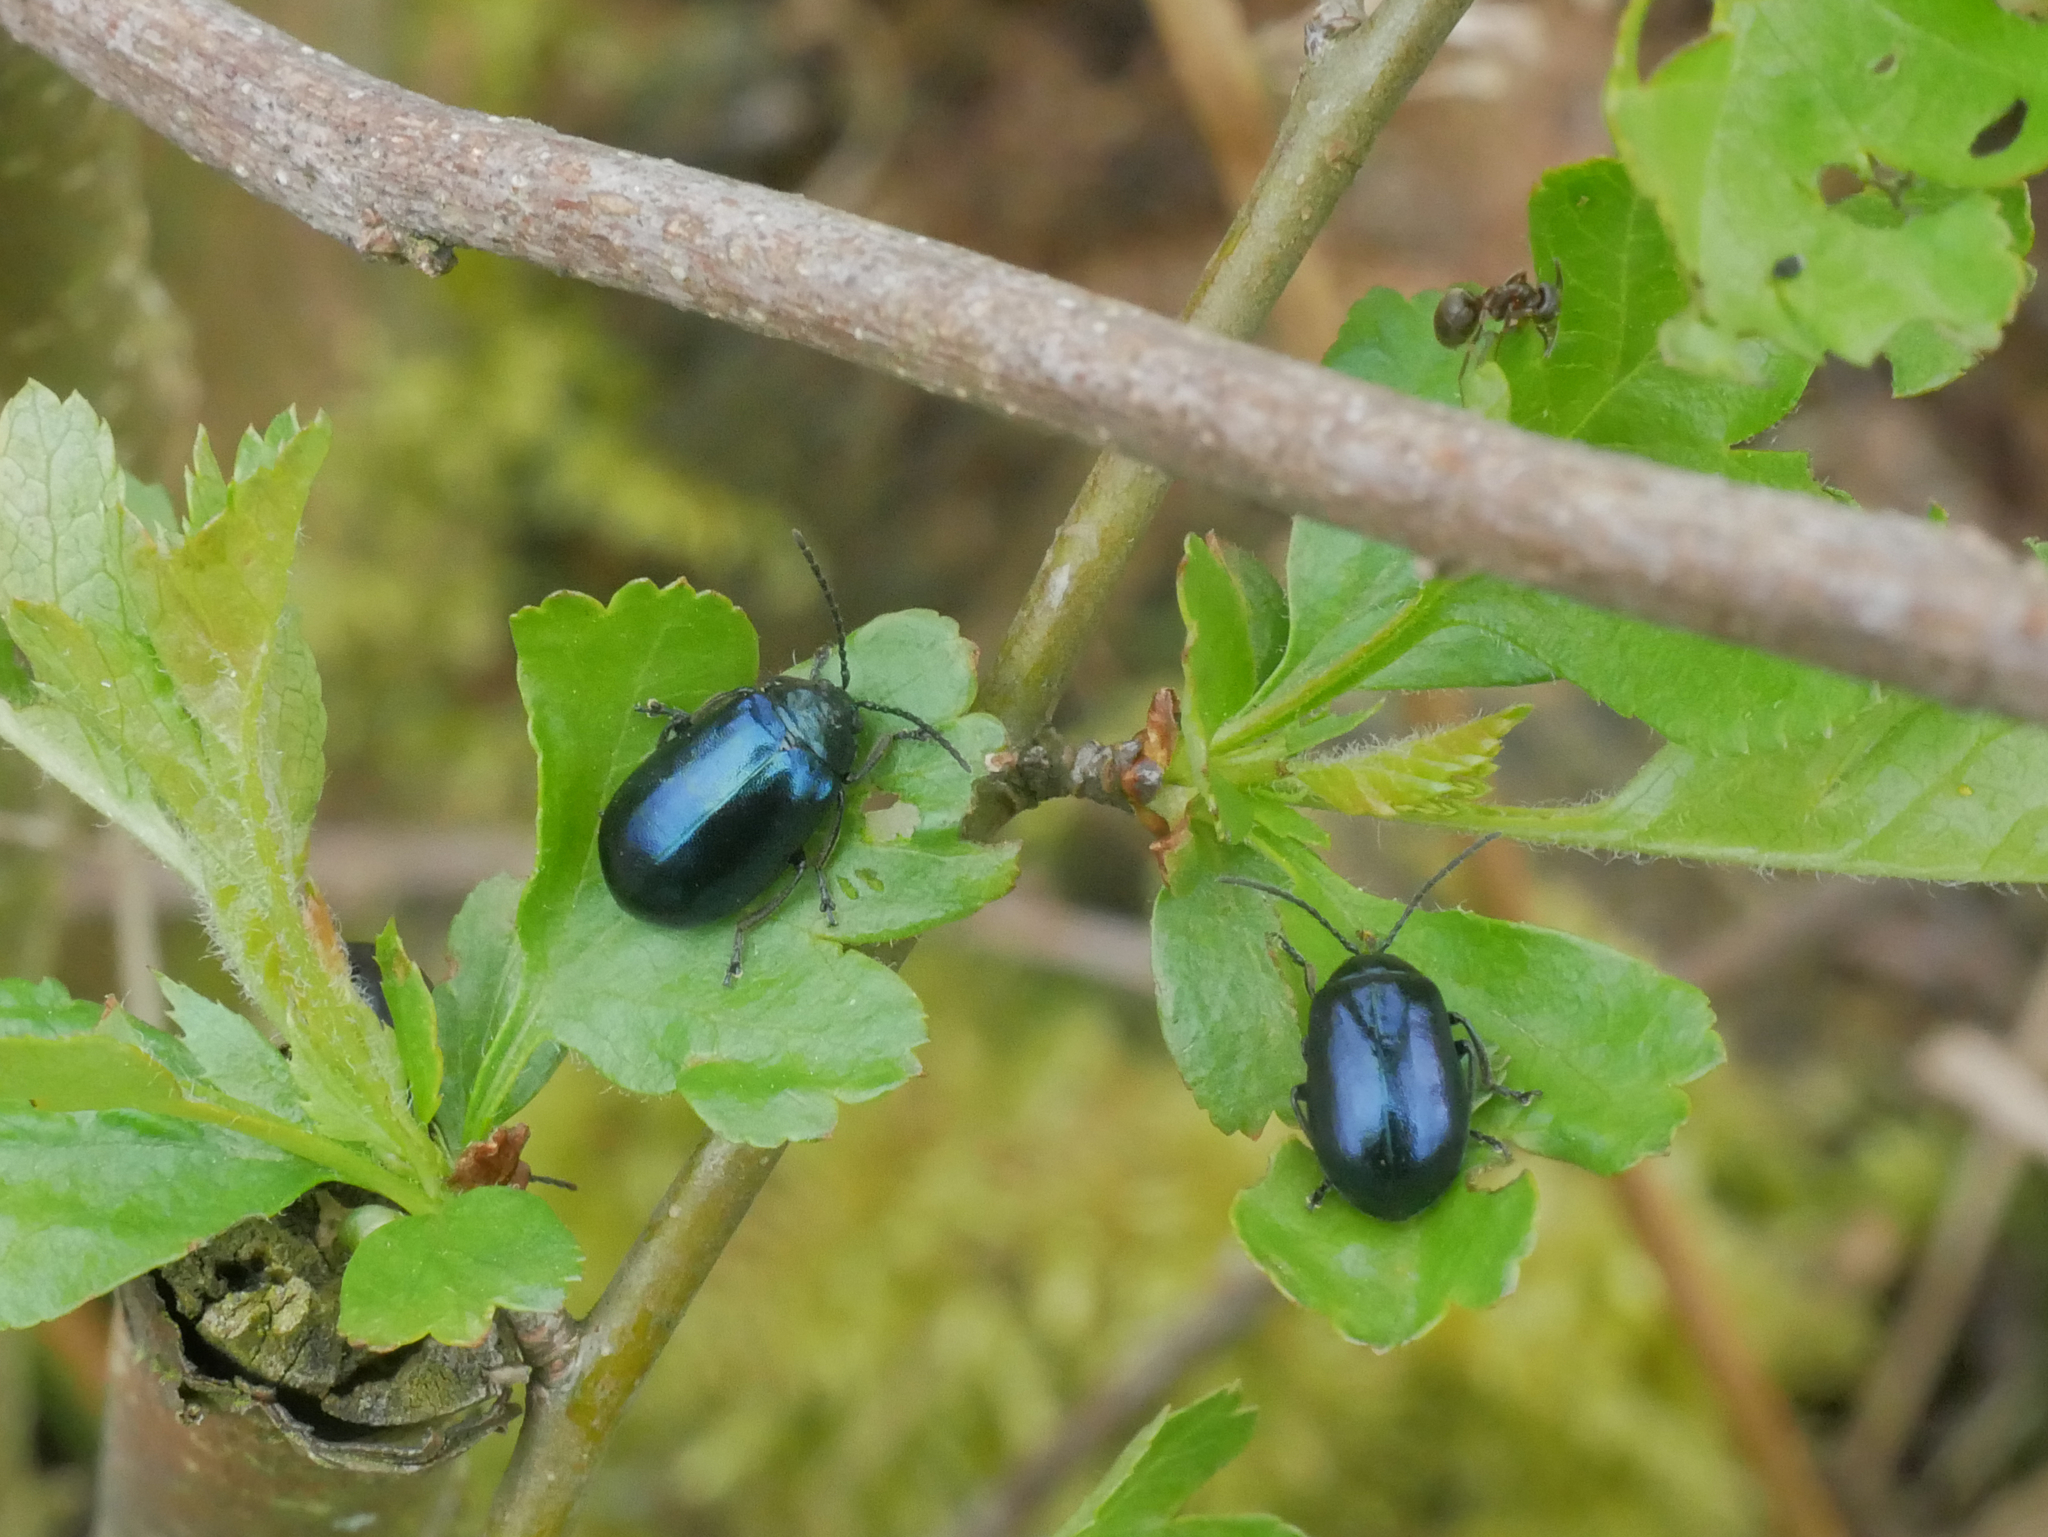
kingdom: Animalia
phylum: Arthropoda
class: Insecta
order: Coleoptera
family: Chrysomelidae
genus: Agelastica
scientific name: Agelastica alni
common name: Alder leaf beetle
